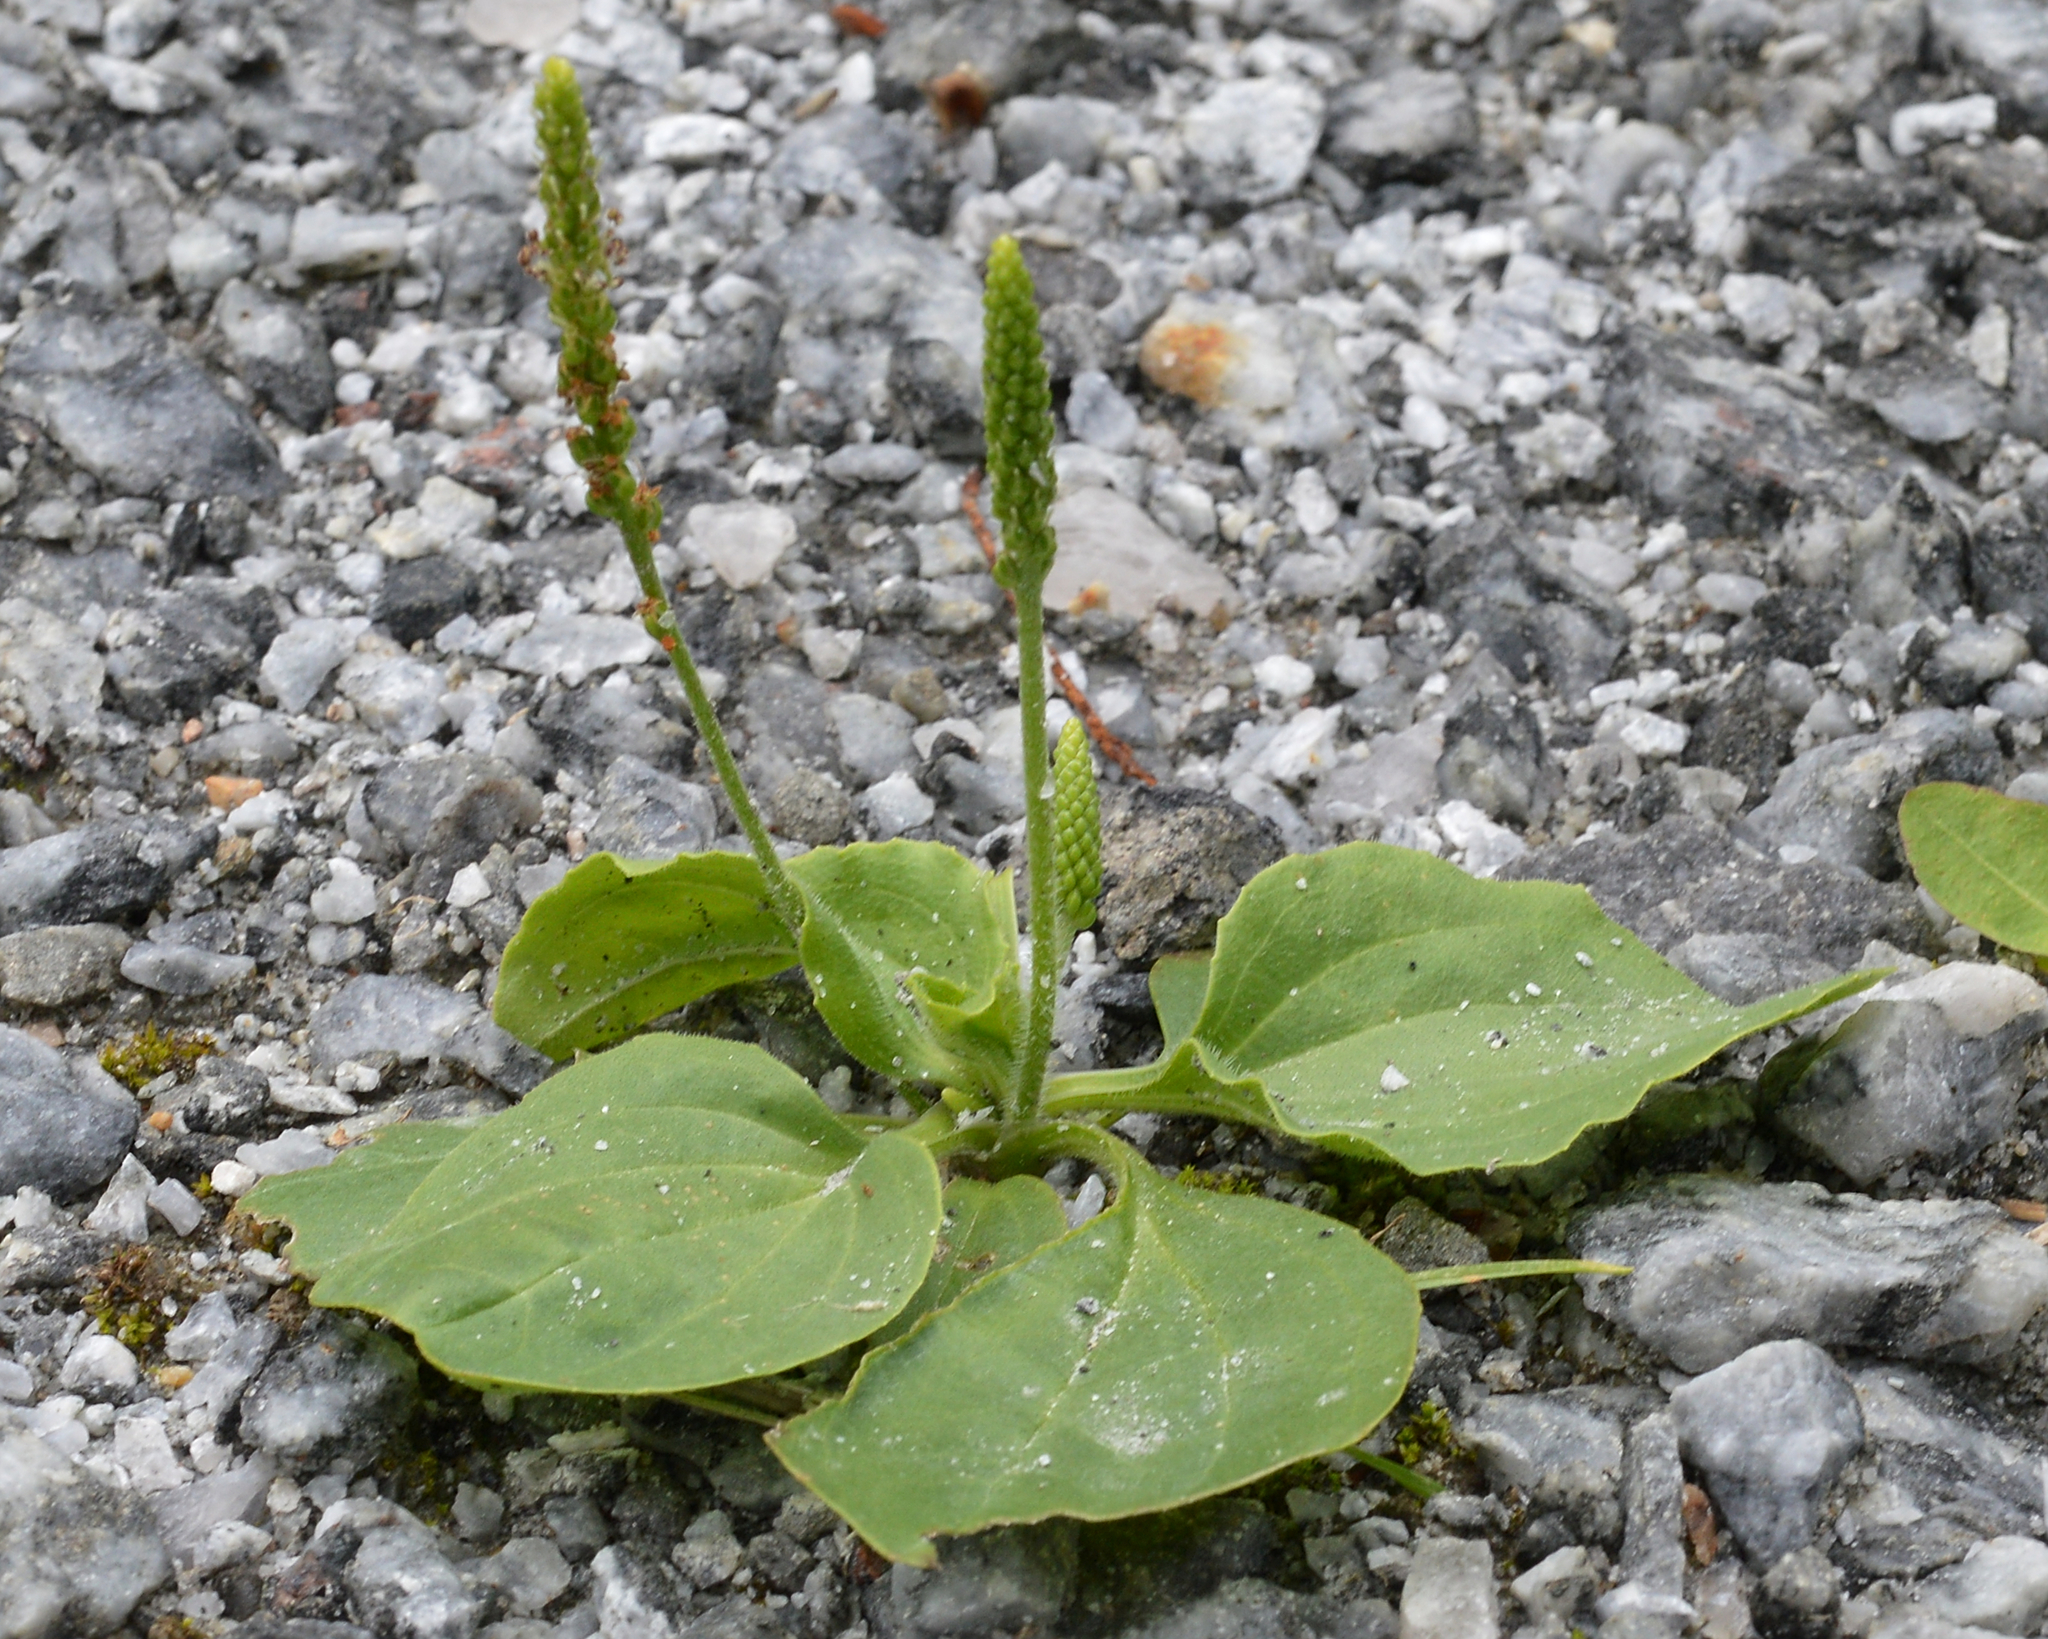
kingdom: Plantae
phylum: Tracheophyta
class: Magnoliopsida
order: Lamiales
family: Plantaginaceae
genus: Plantago
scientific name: Plantago major
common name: Common plantain
